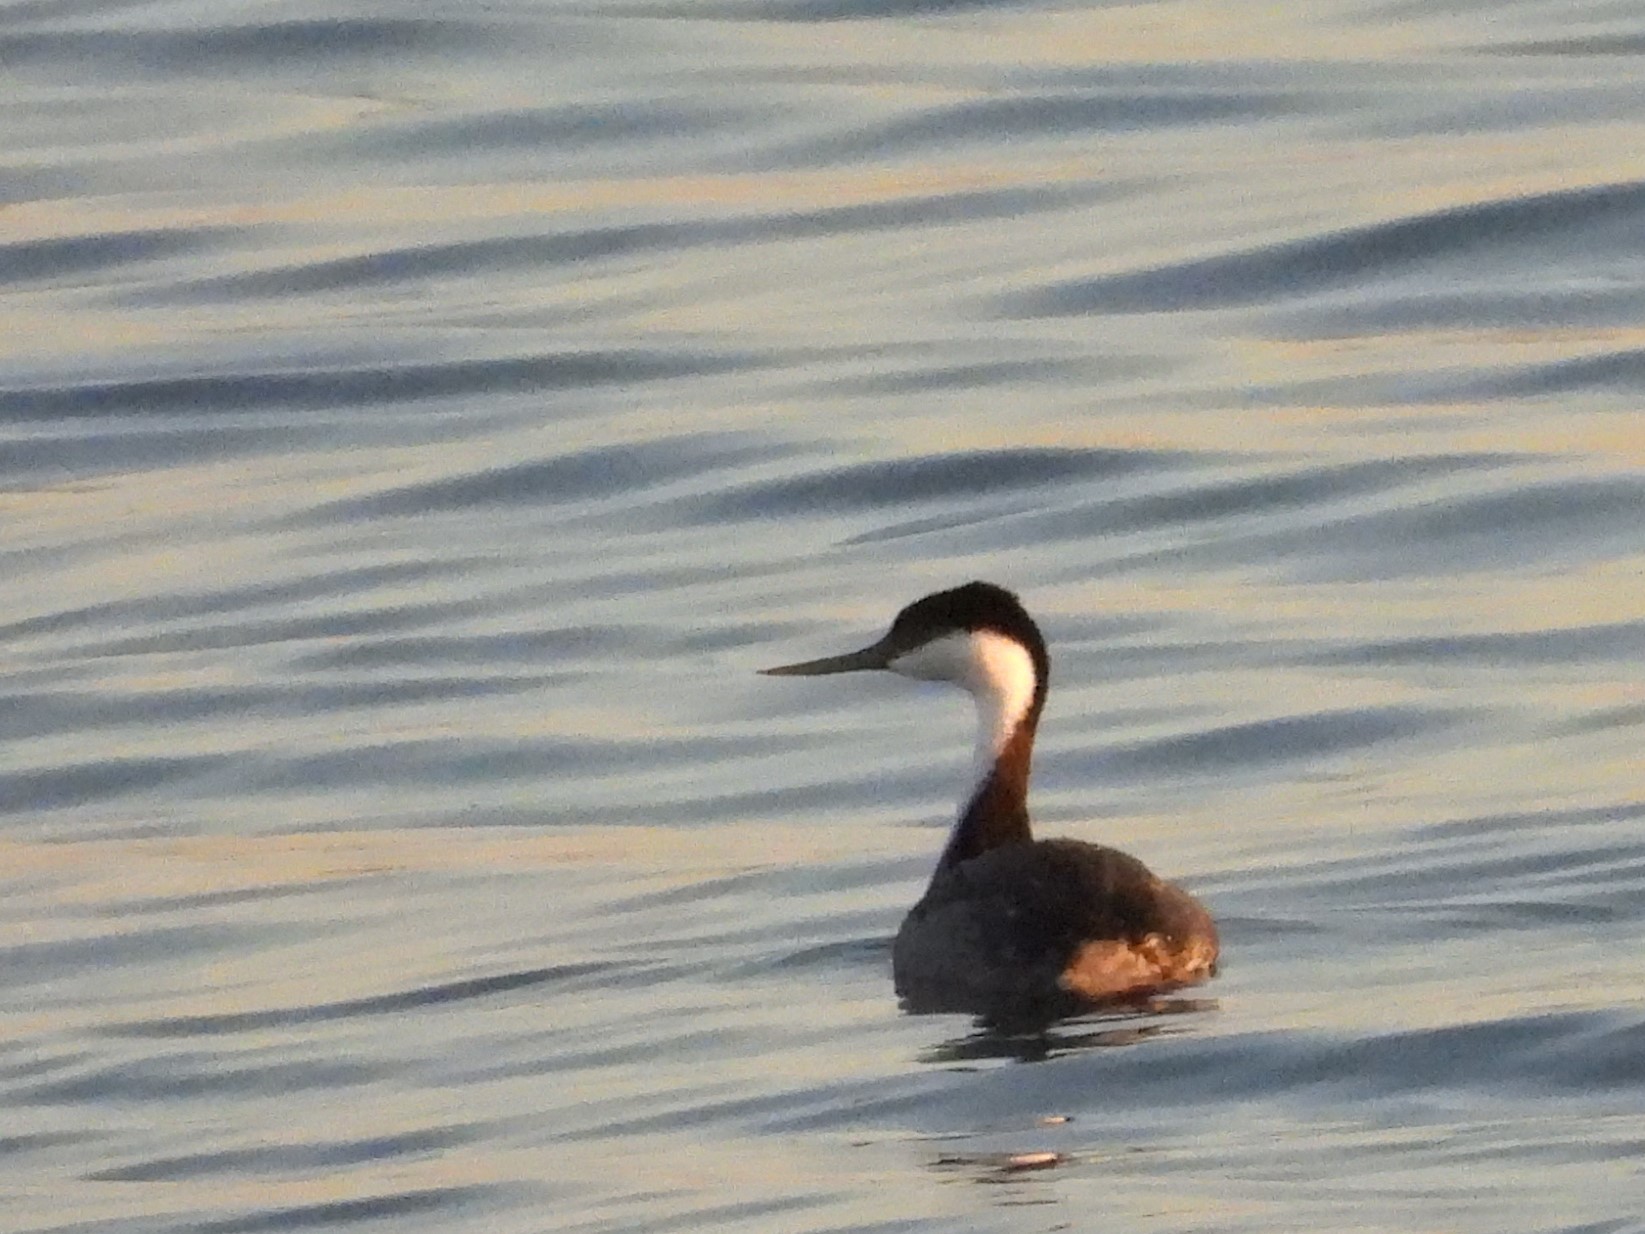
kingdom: Animalia
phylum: Chordata
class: Aves
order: Podicipediformes
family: Podicipedidae
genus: Aechmophorus
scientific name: Aechmophorus occidentalis
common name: Western grebe
